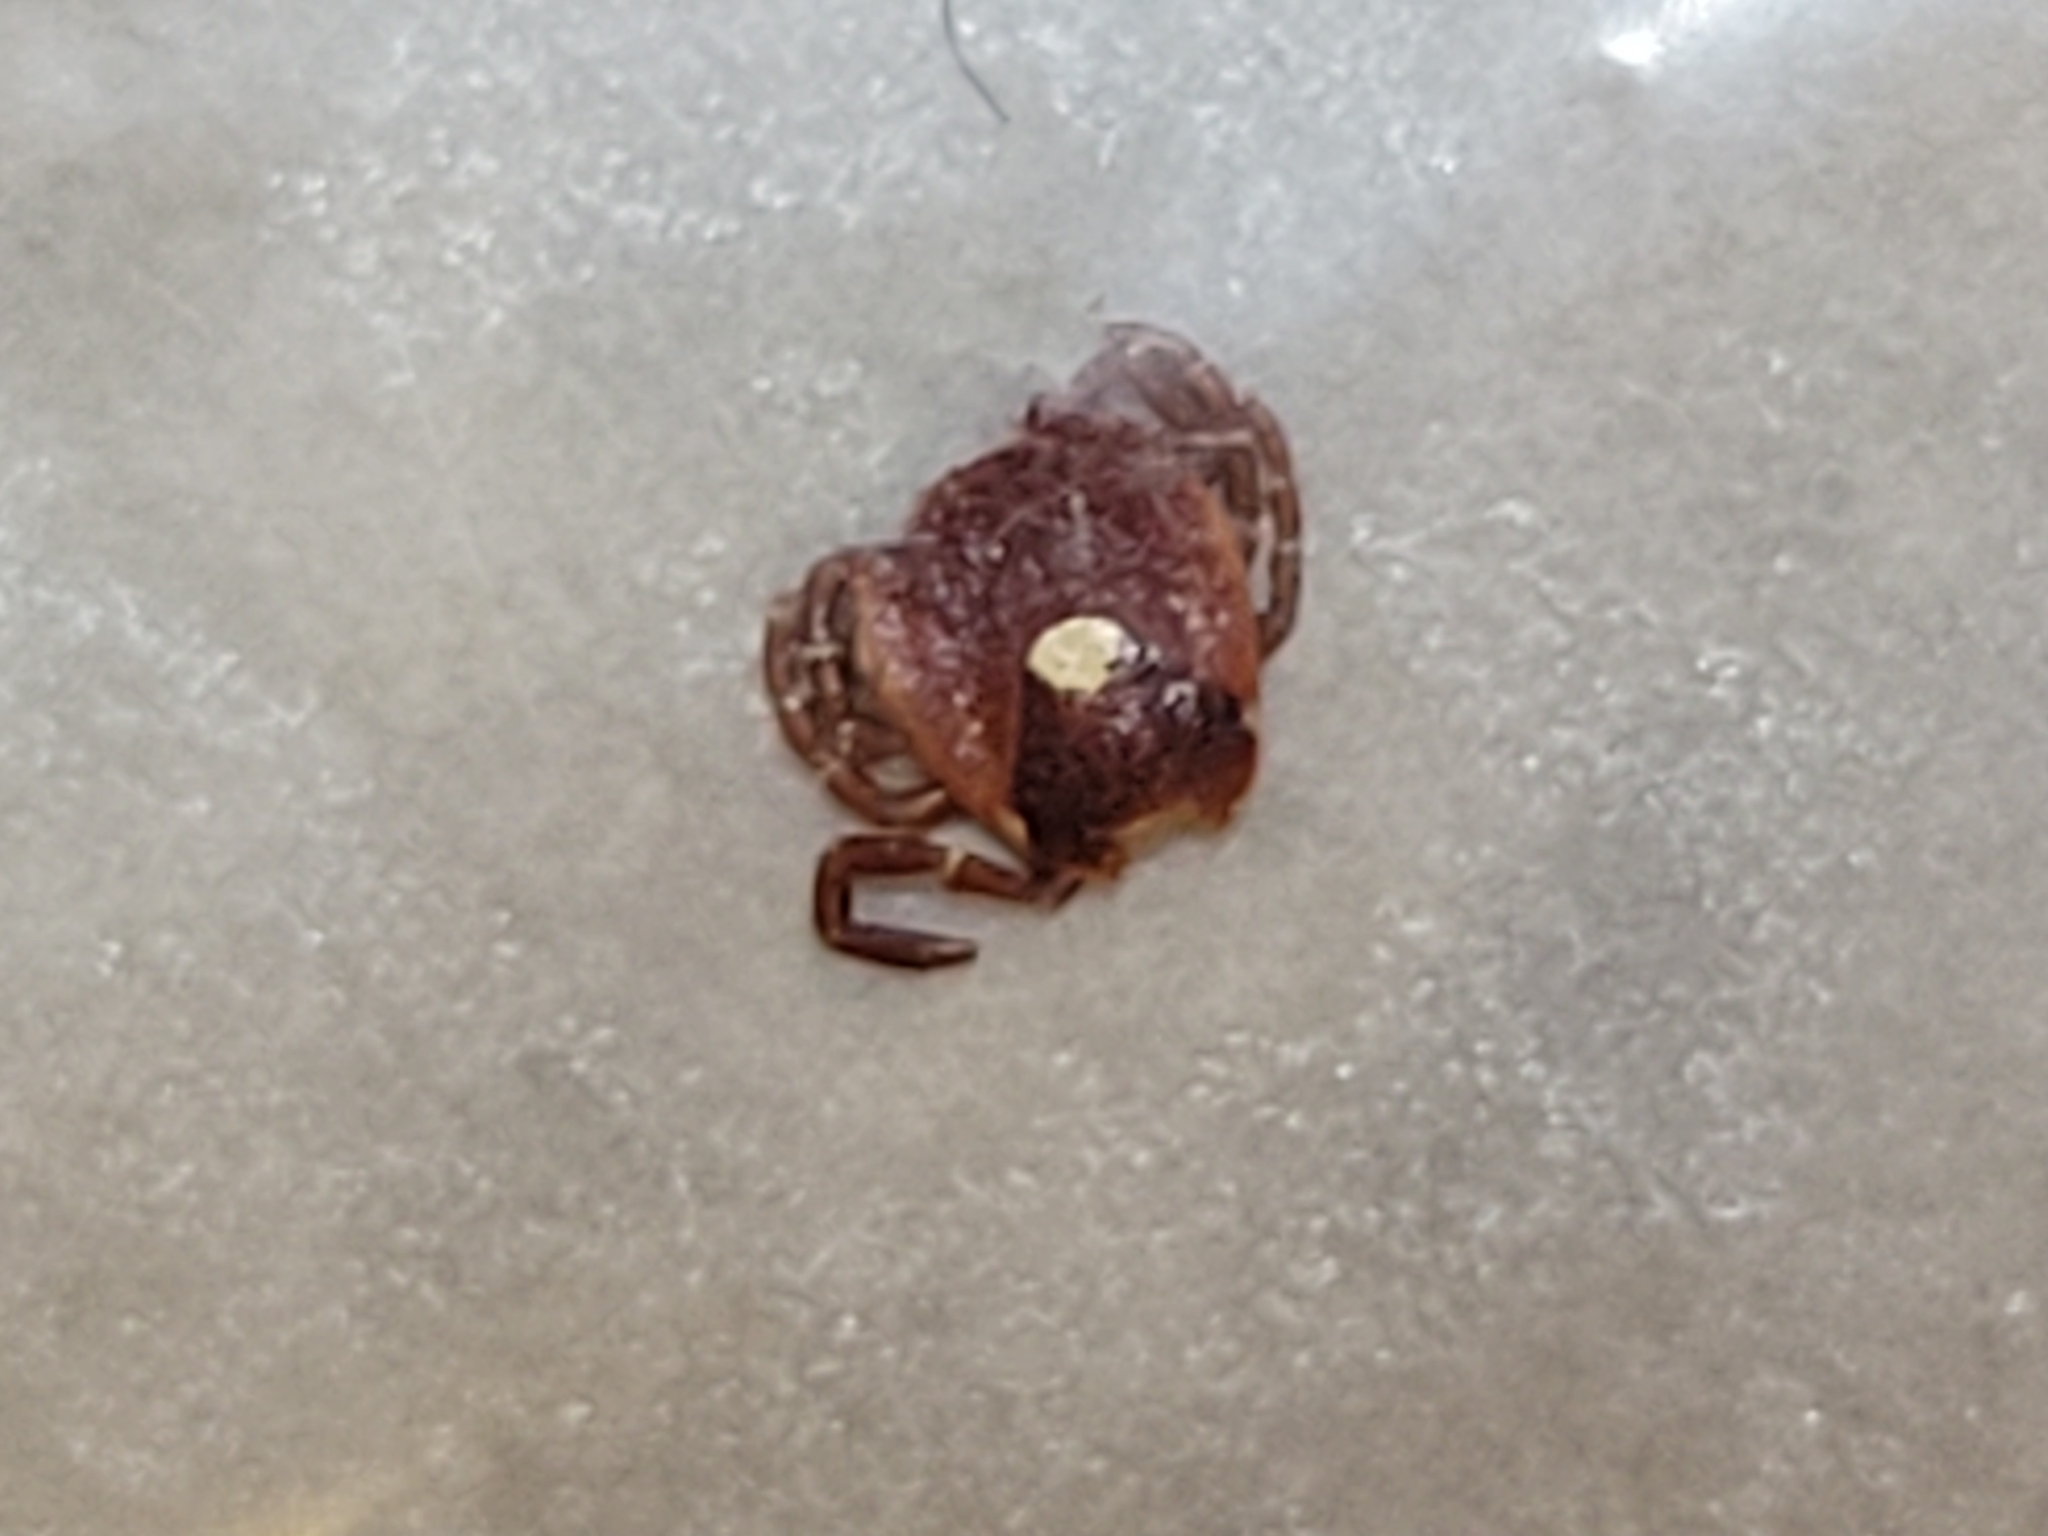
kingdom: Animalia
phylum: Arthropoda
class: Arachnida
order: Ixodida
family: Ixodidae
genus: Amblyomma
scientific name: Amblyomma americanum
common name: Lone star tick
